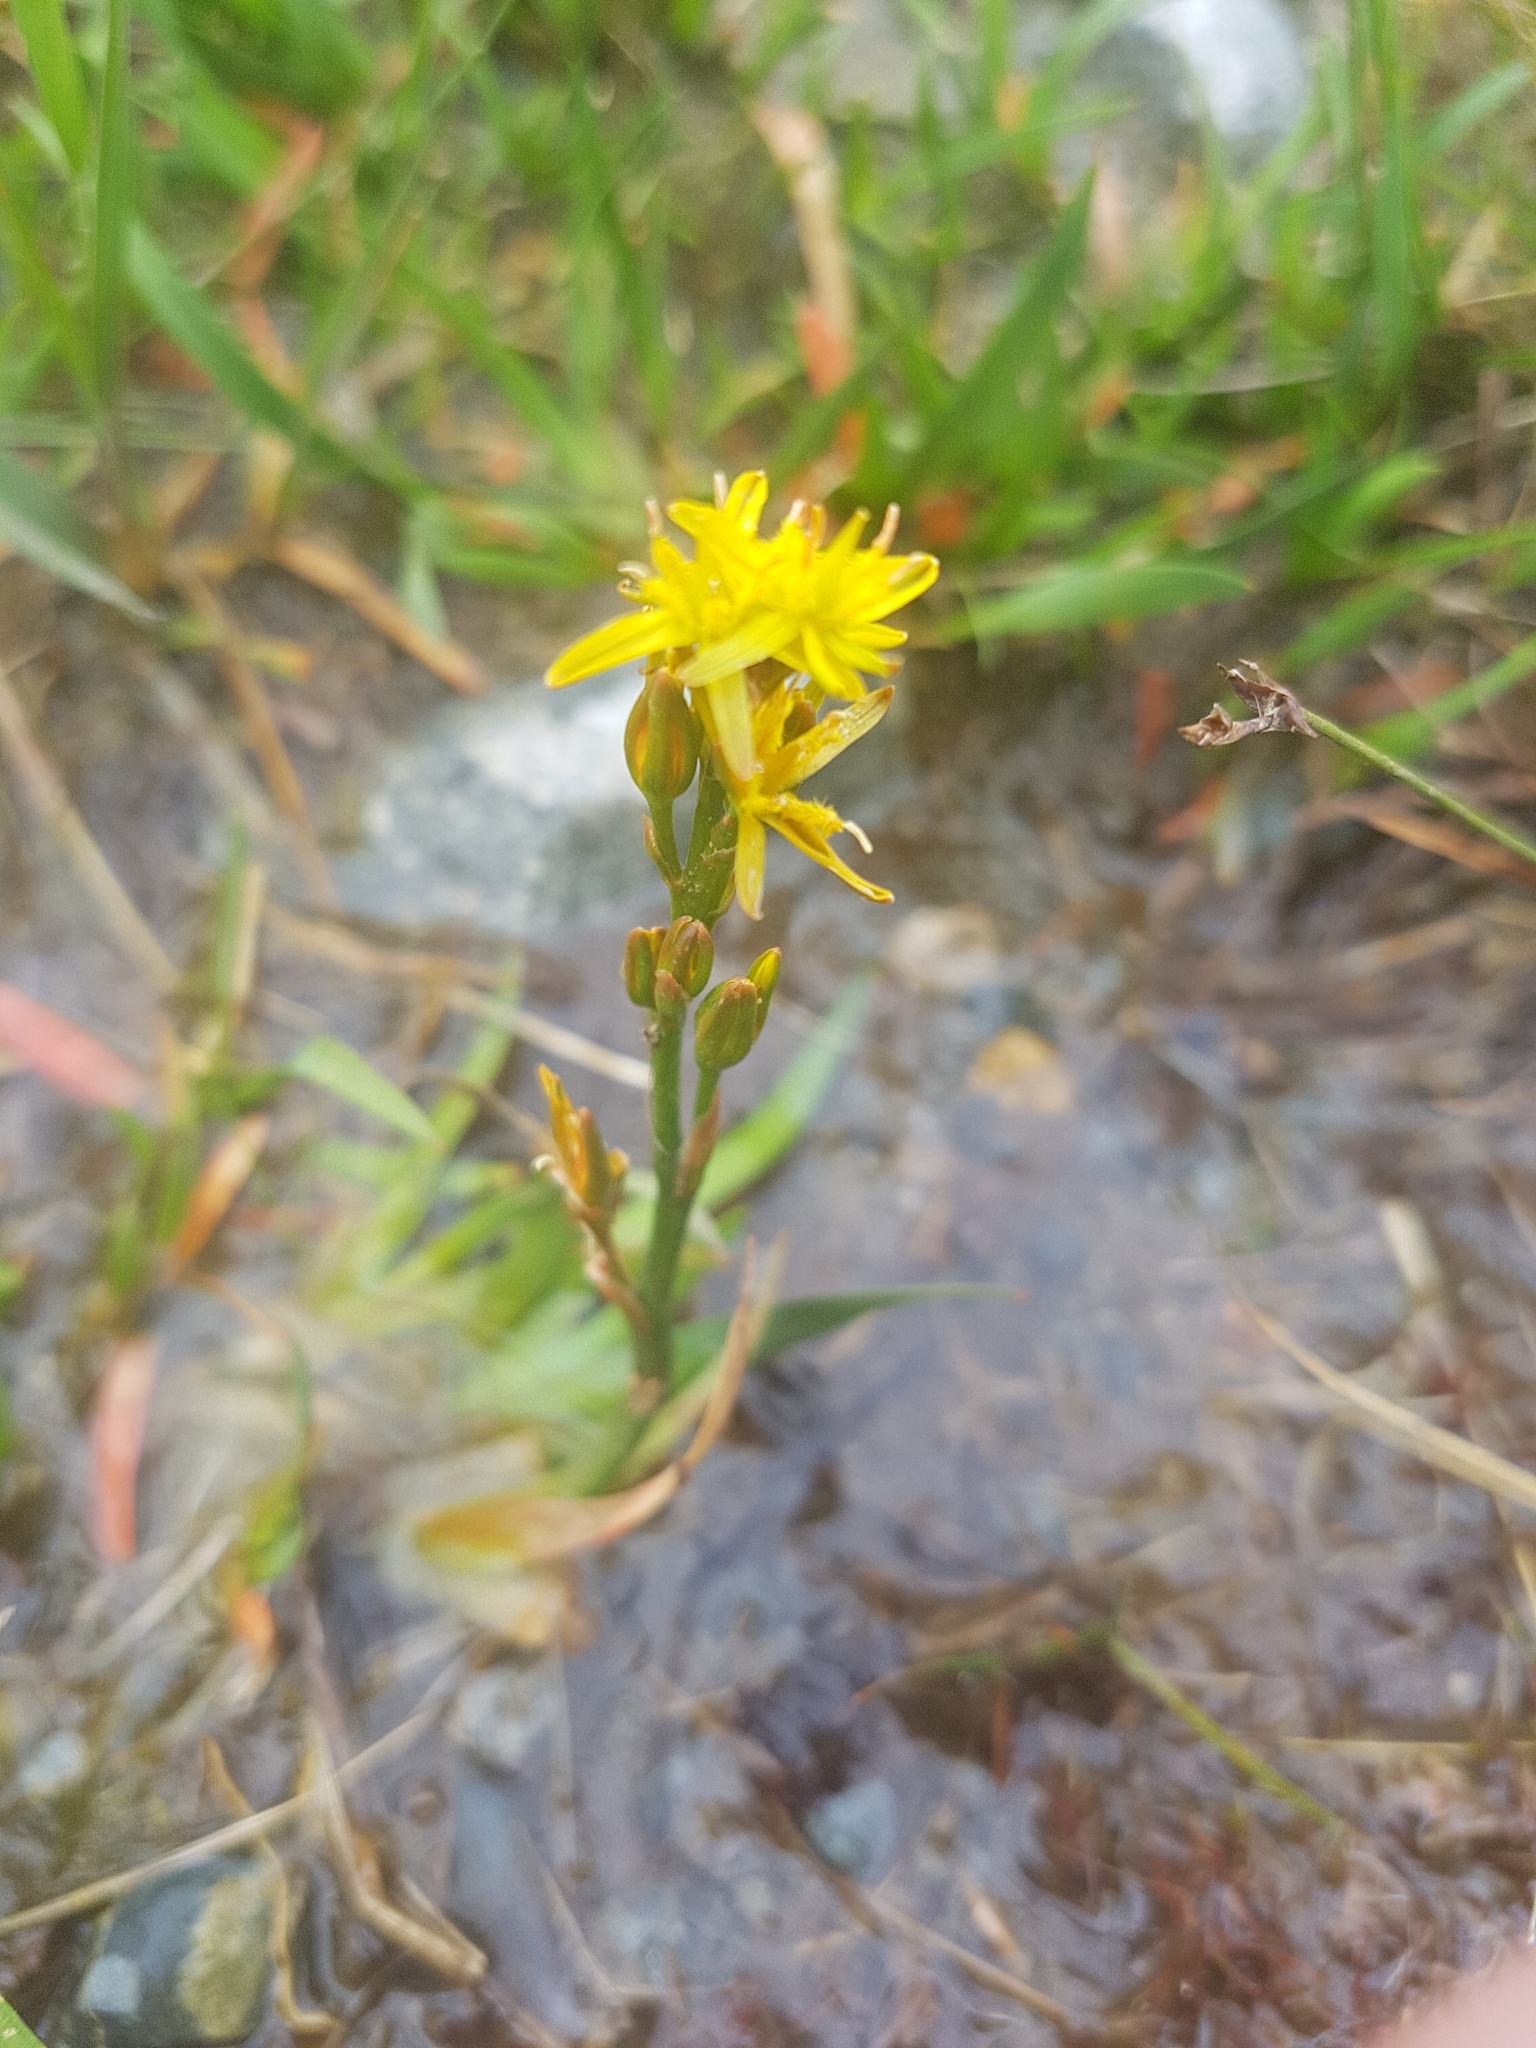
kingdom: Plantae
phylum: Tracheophyta
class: Liliopsida
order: Dioscoreales
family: Nartheciaceae
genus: Narthecium
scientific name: Narthecium ossifragum
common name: Bog asphodel
